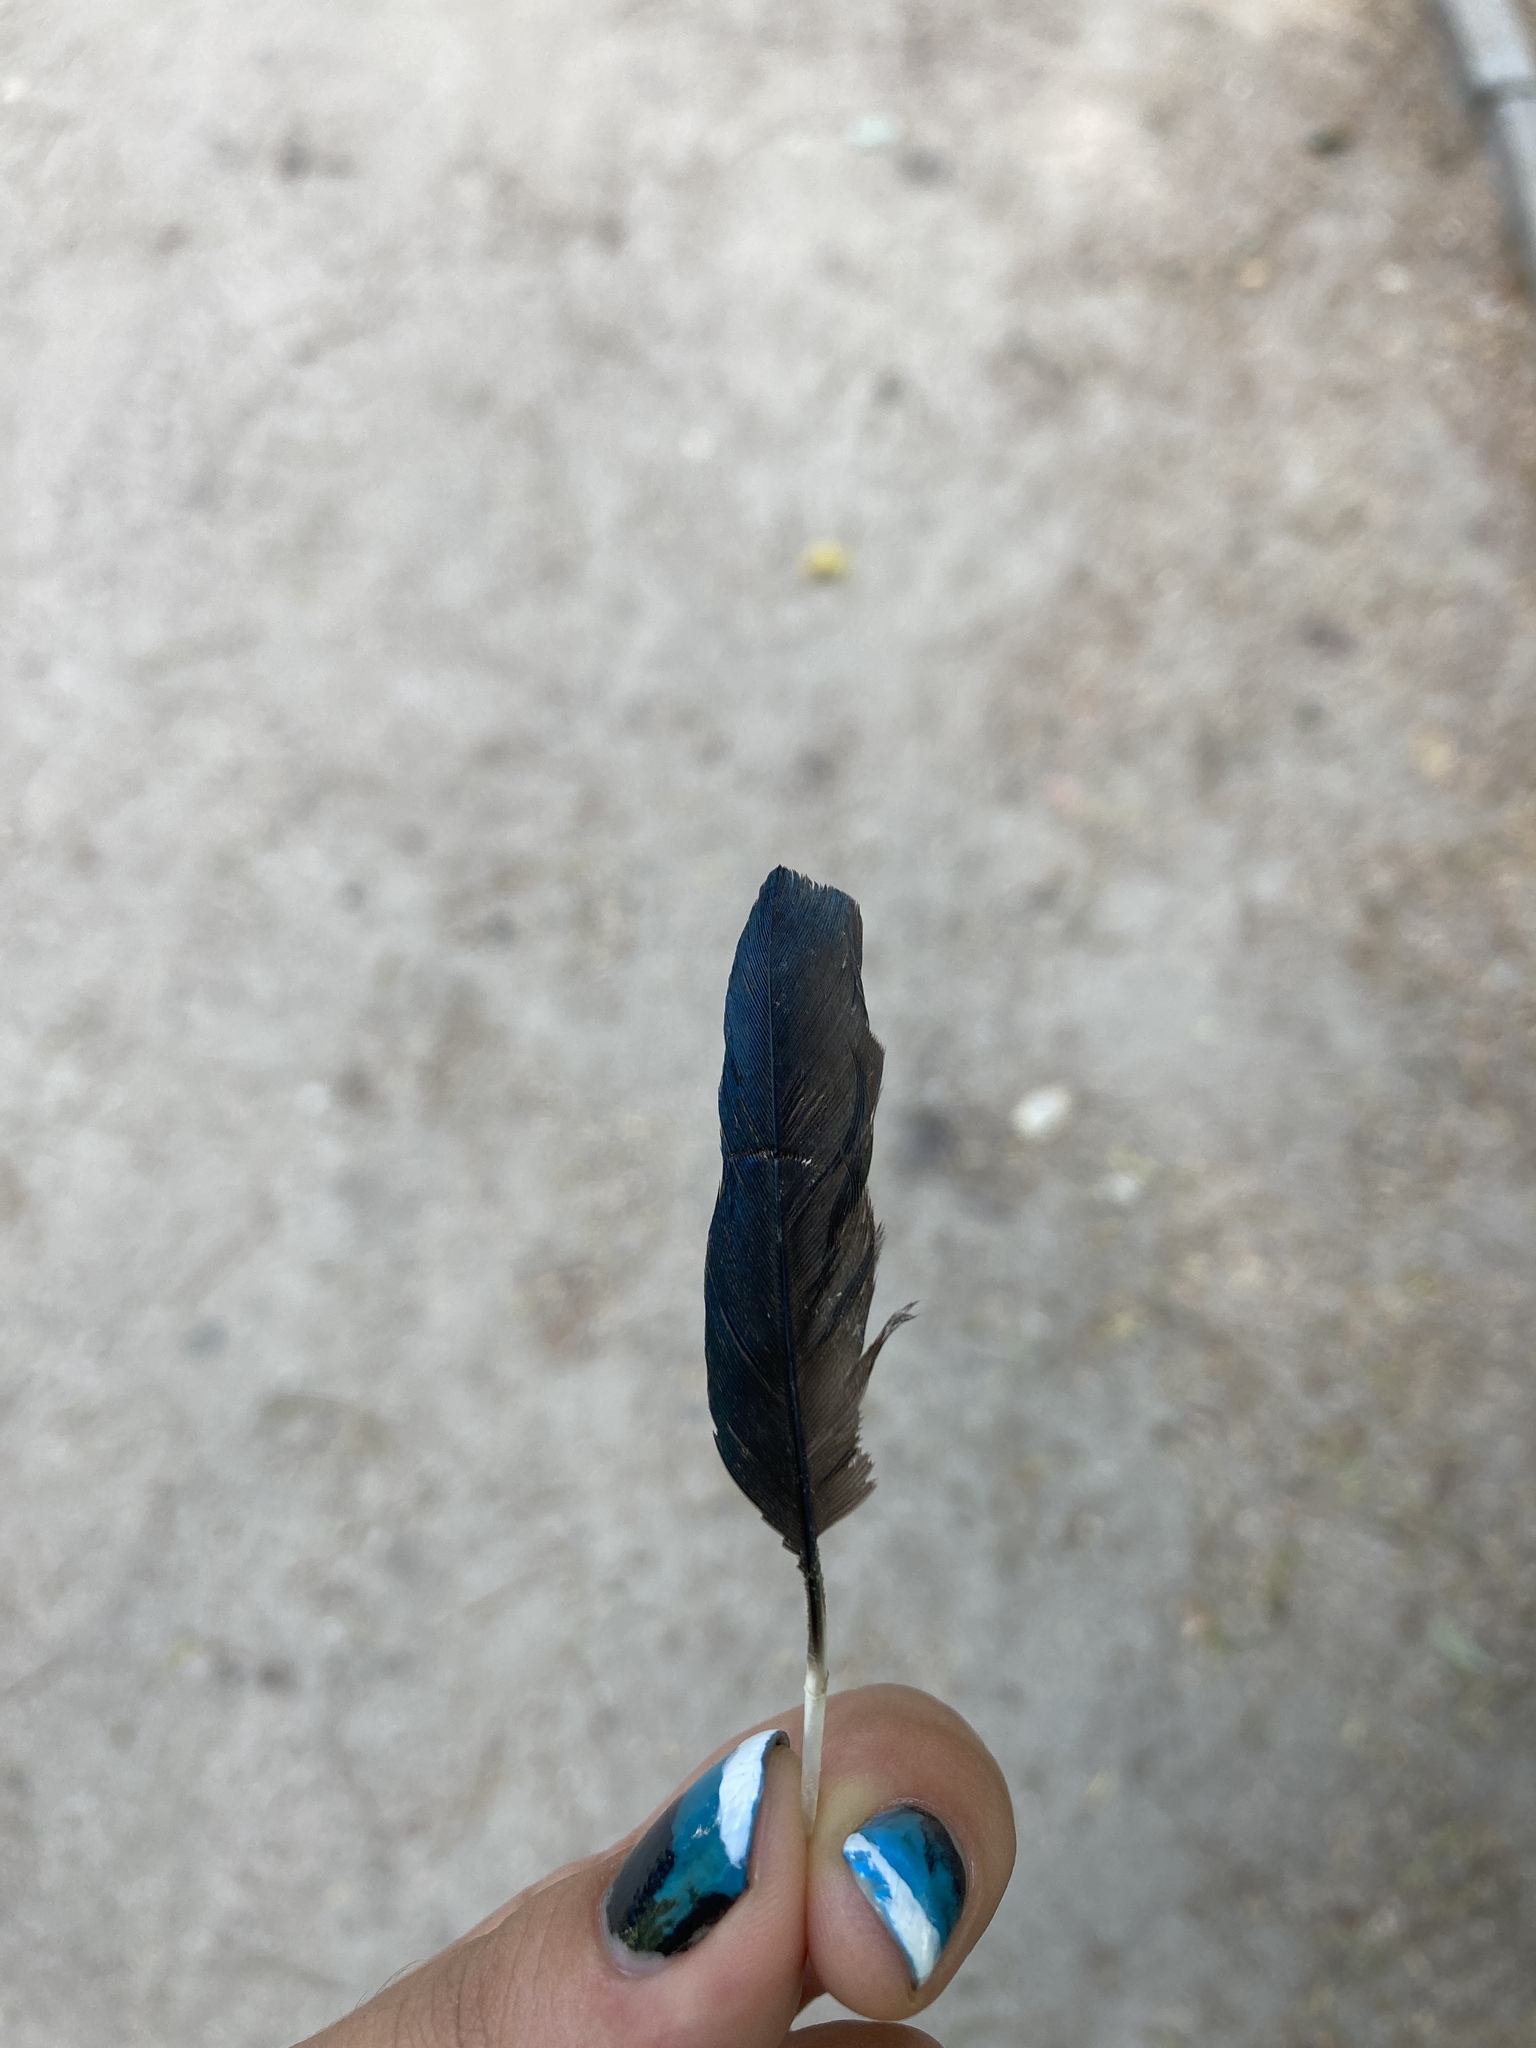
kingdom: Animalia
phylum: Chordata
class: Aves
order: Passeriformes
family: Corvidae
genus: Pica
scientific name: Pica pica
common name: Eurasian magpie
